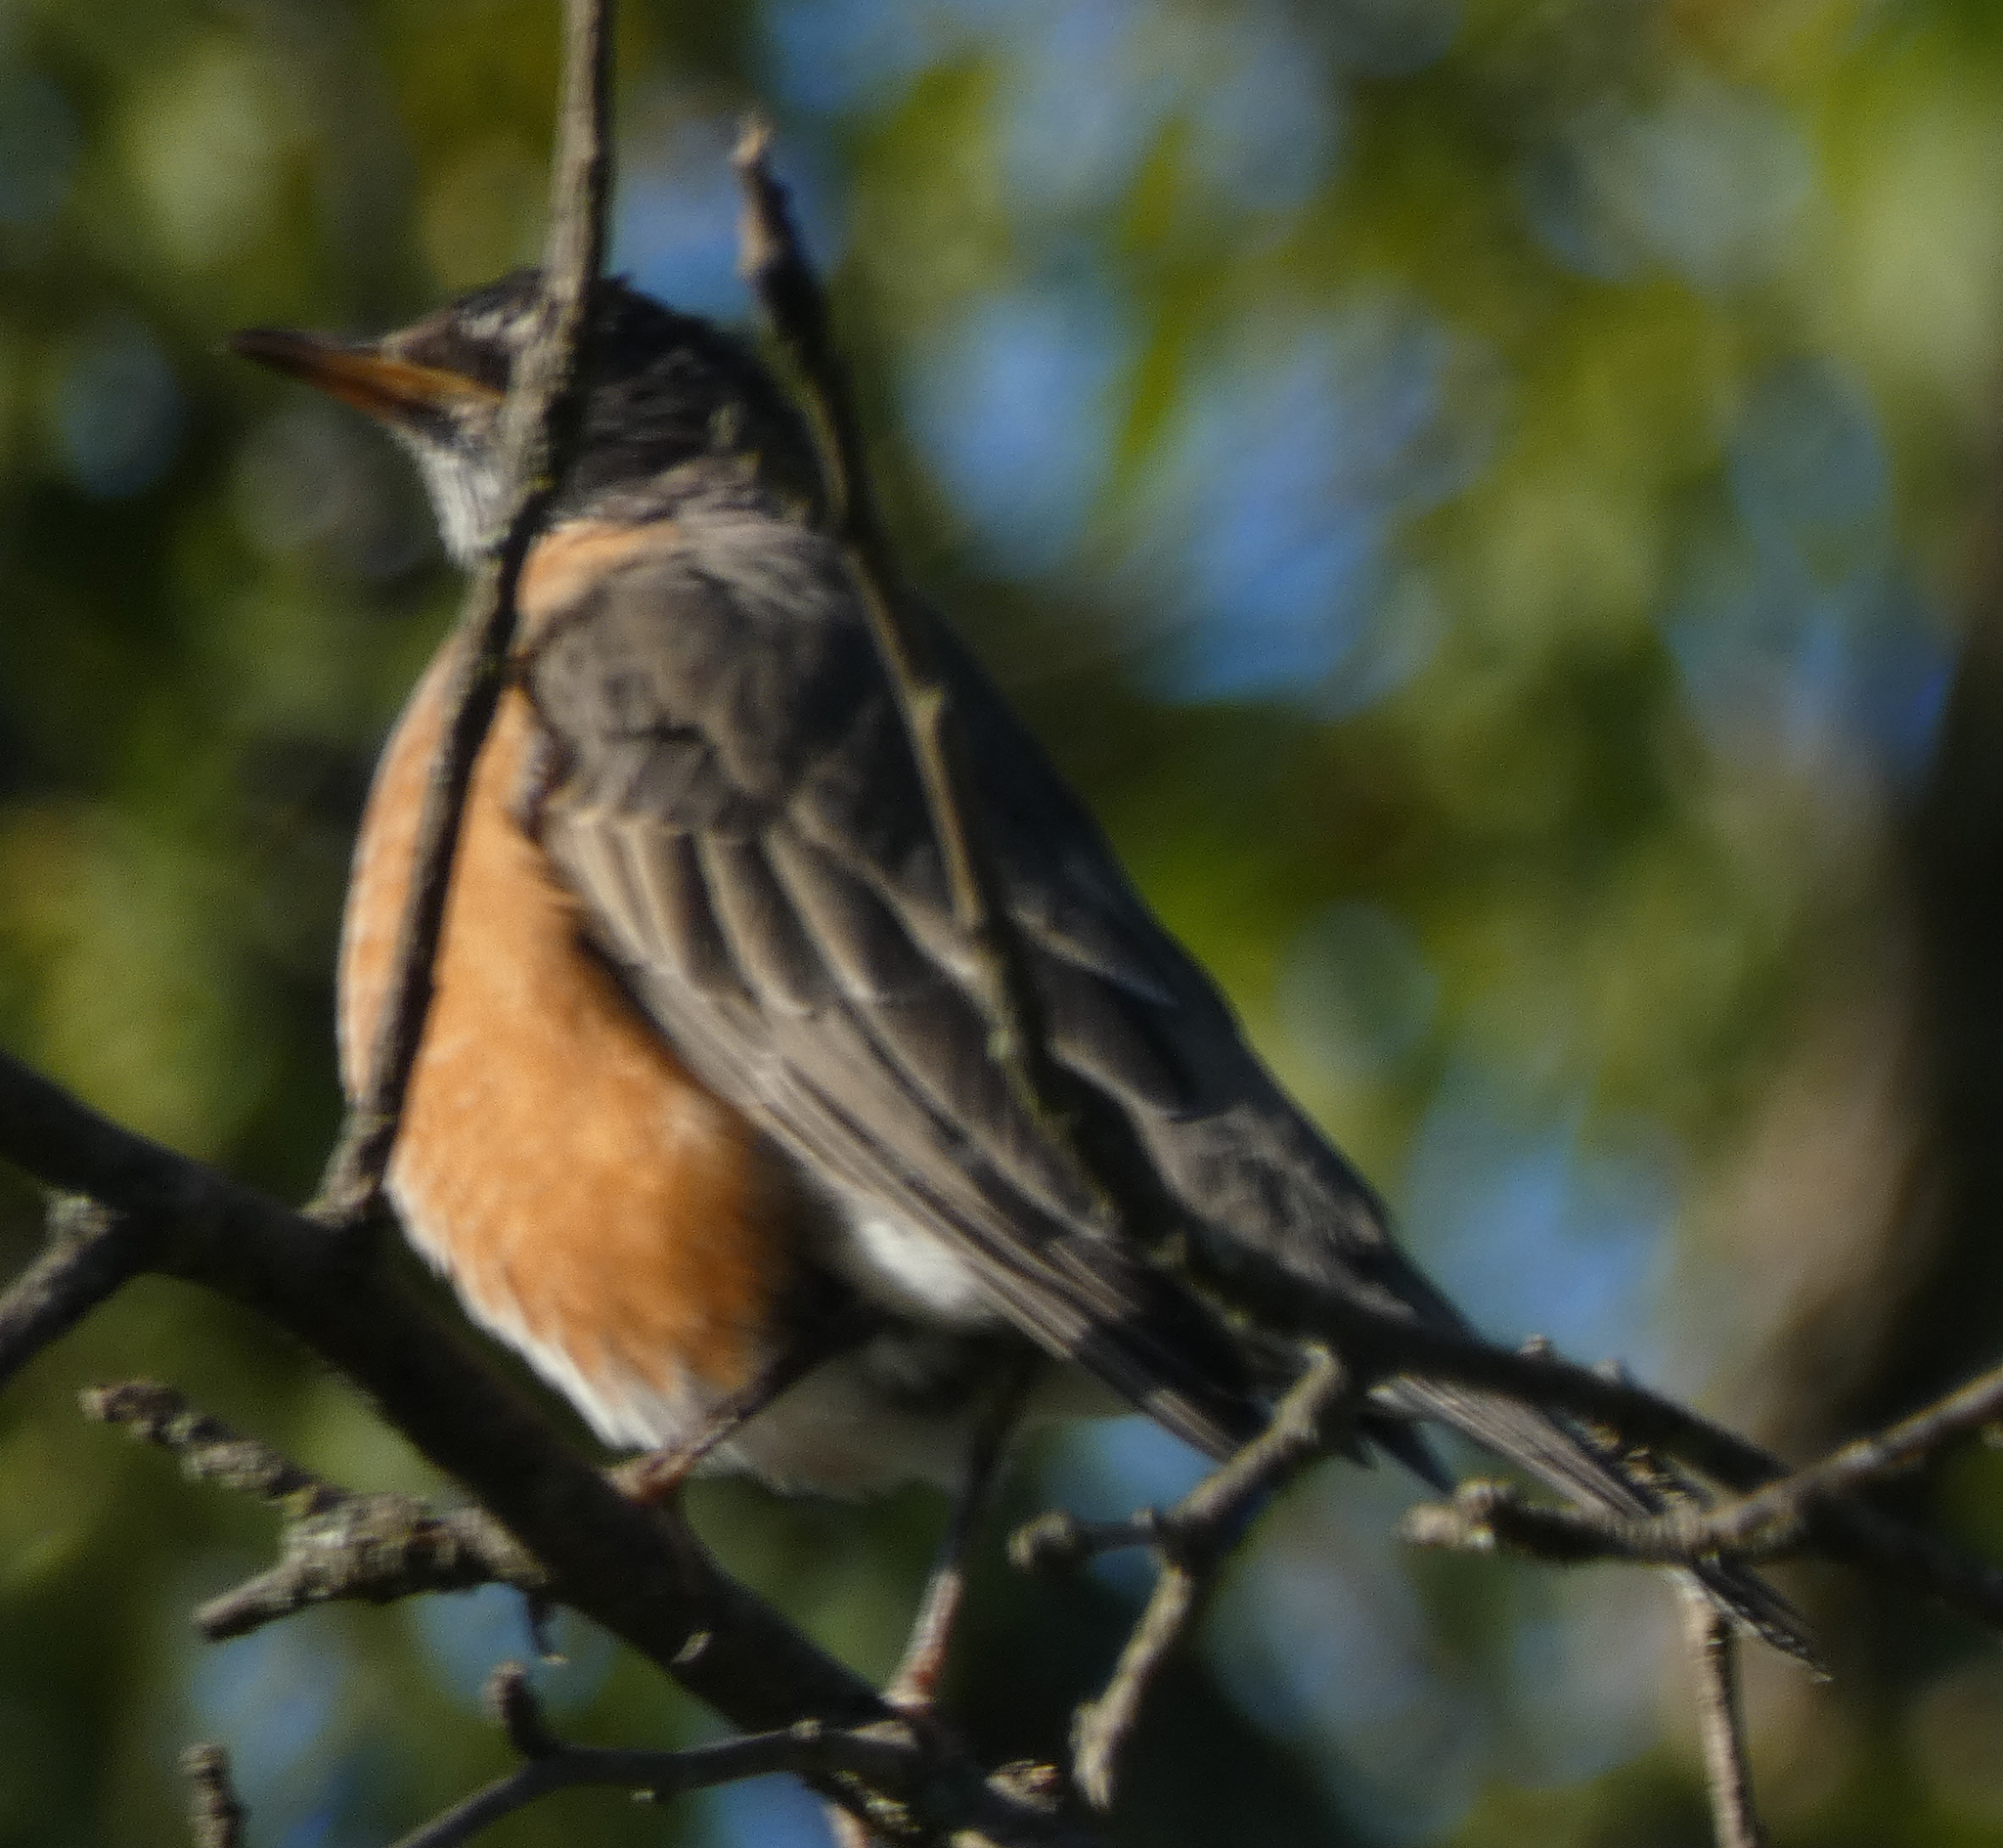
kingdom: Animalia
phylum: Chordata
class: Aves
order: Passeriformes
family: Turdidae
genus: Turdus
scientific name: Turdus migratorius
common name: American robin
